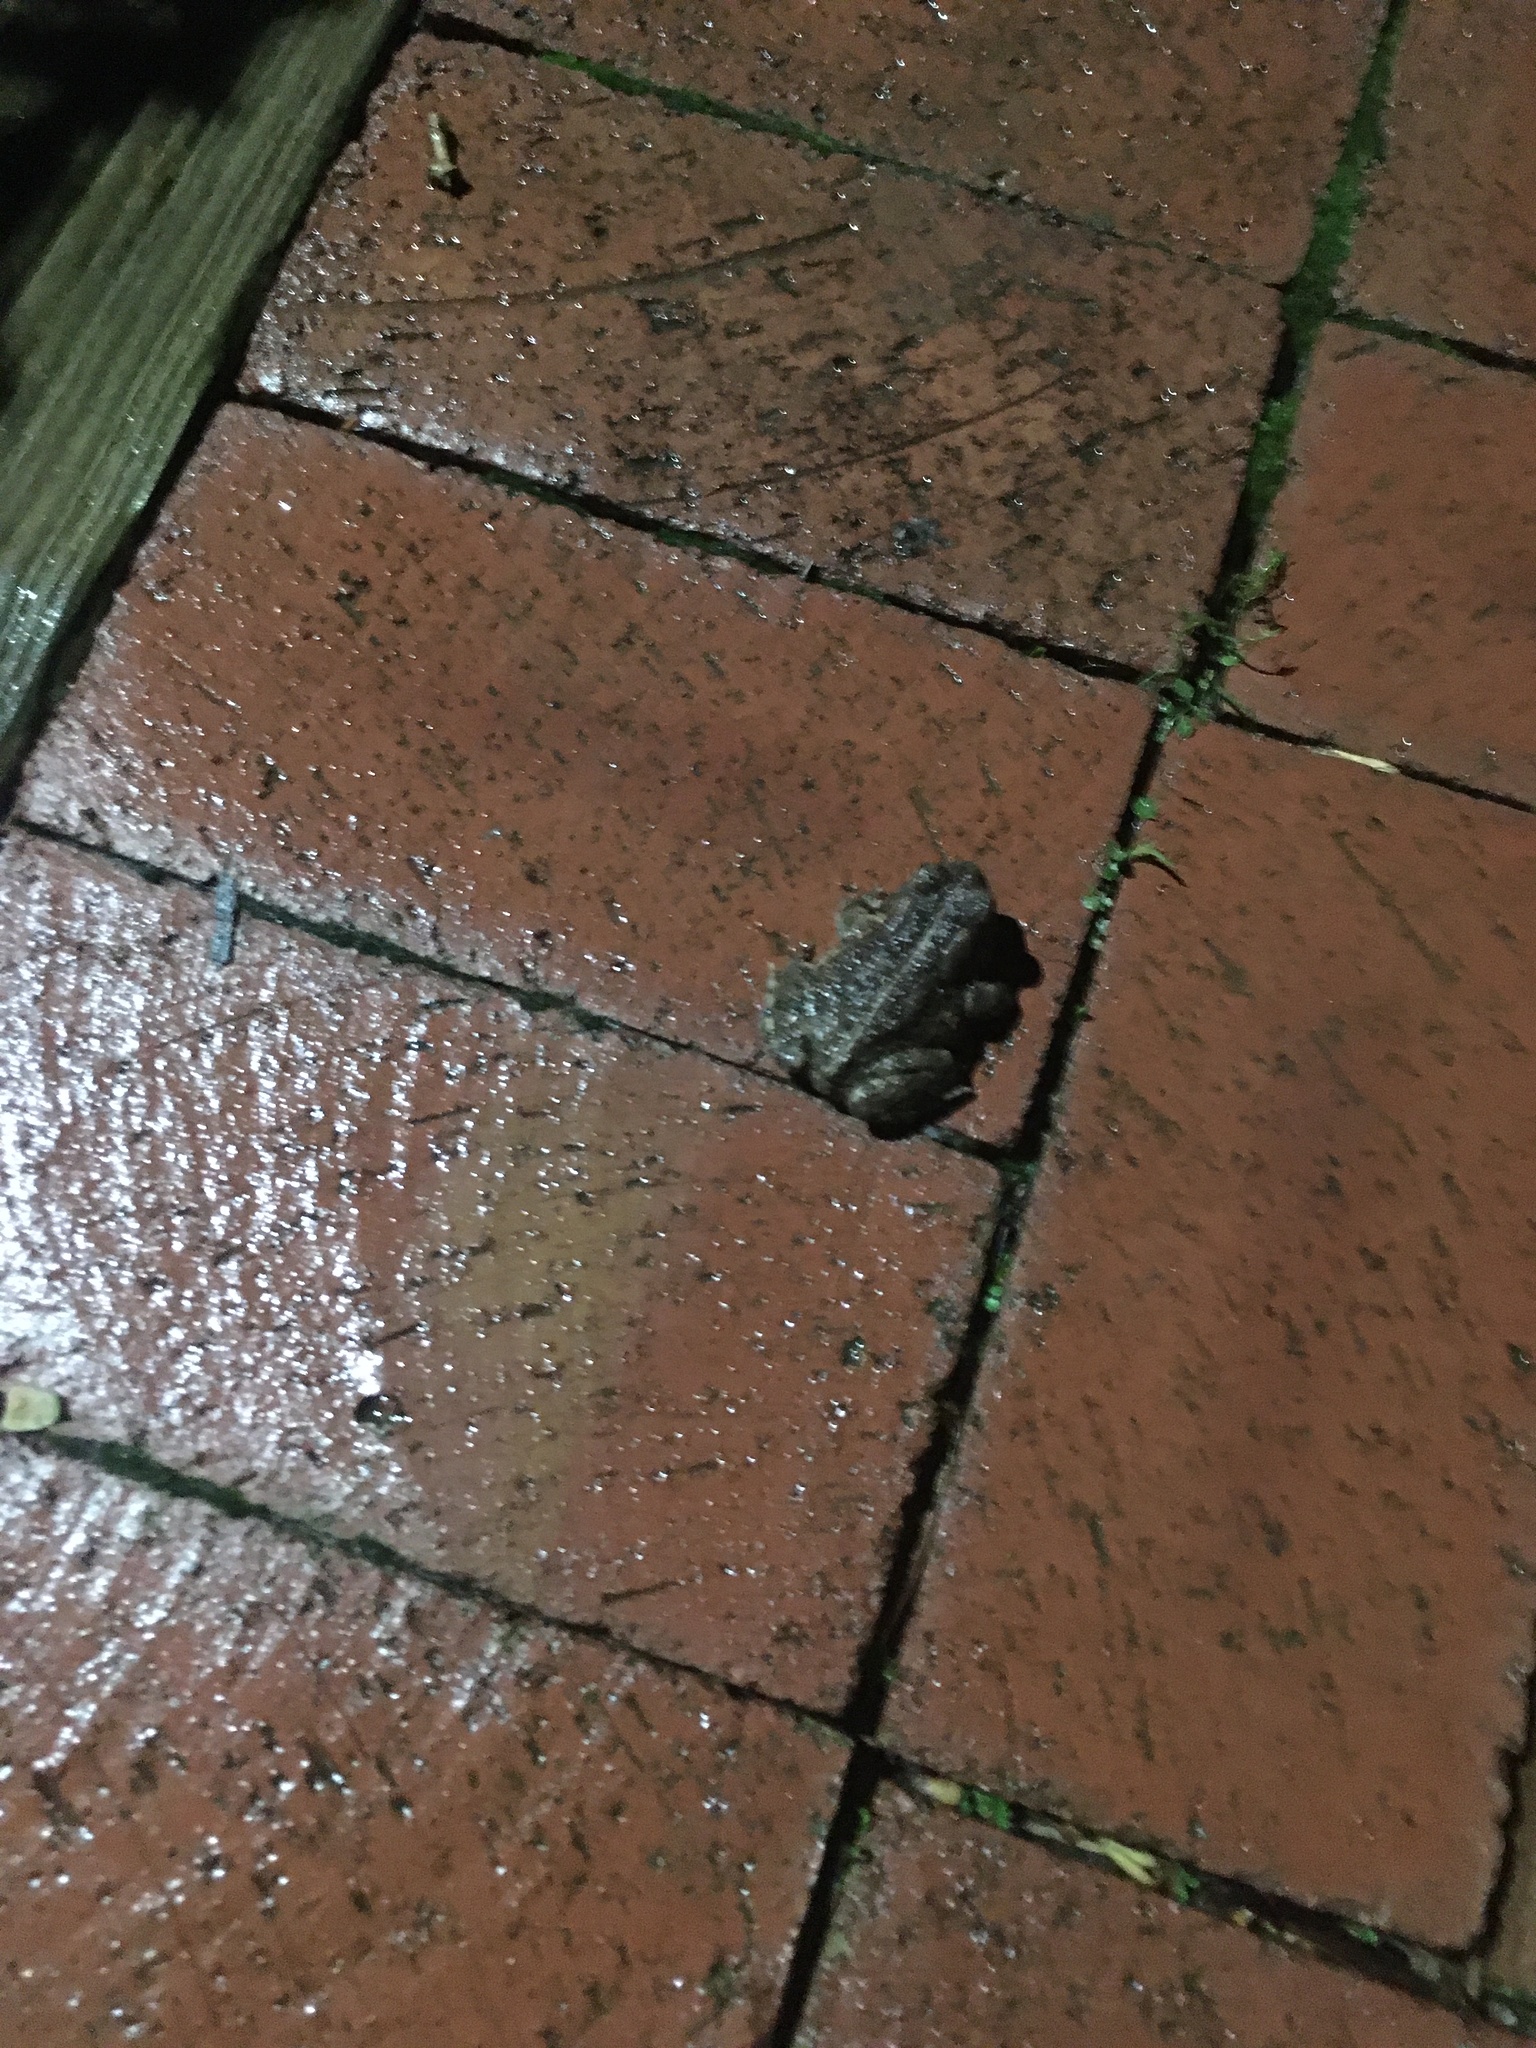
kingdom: Animalia
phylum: Chordata
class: Amphibia
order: Anura
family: Bufonidae
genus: Anaxyrus
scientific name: Anaxyrus fowleri
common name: Fowler's toad
